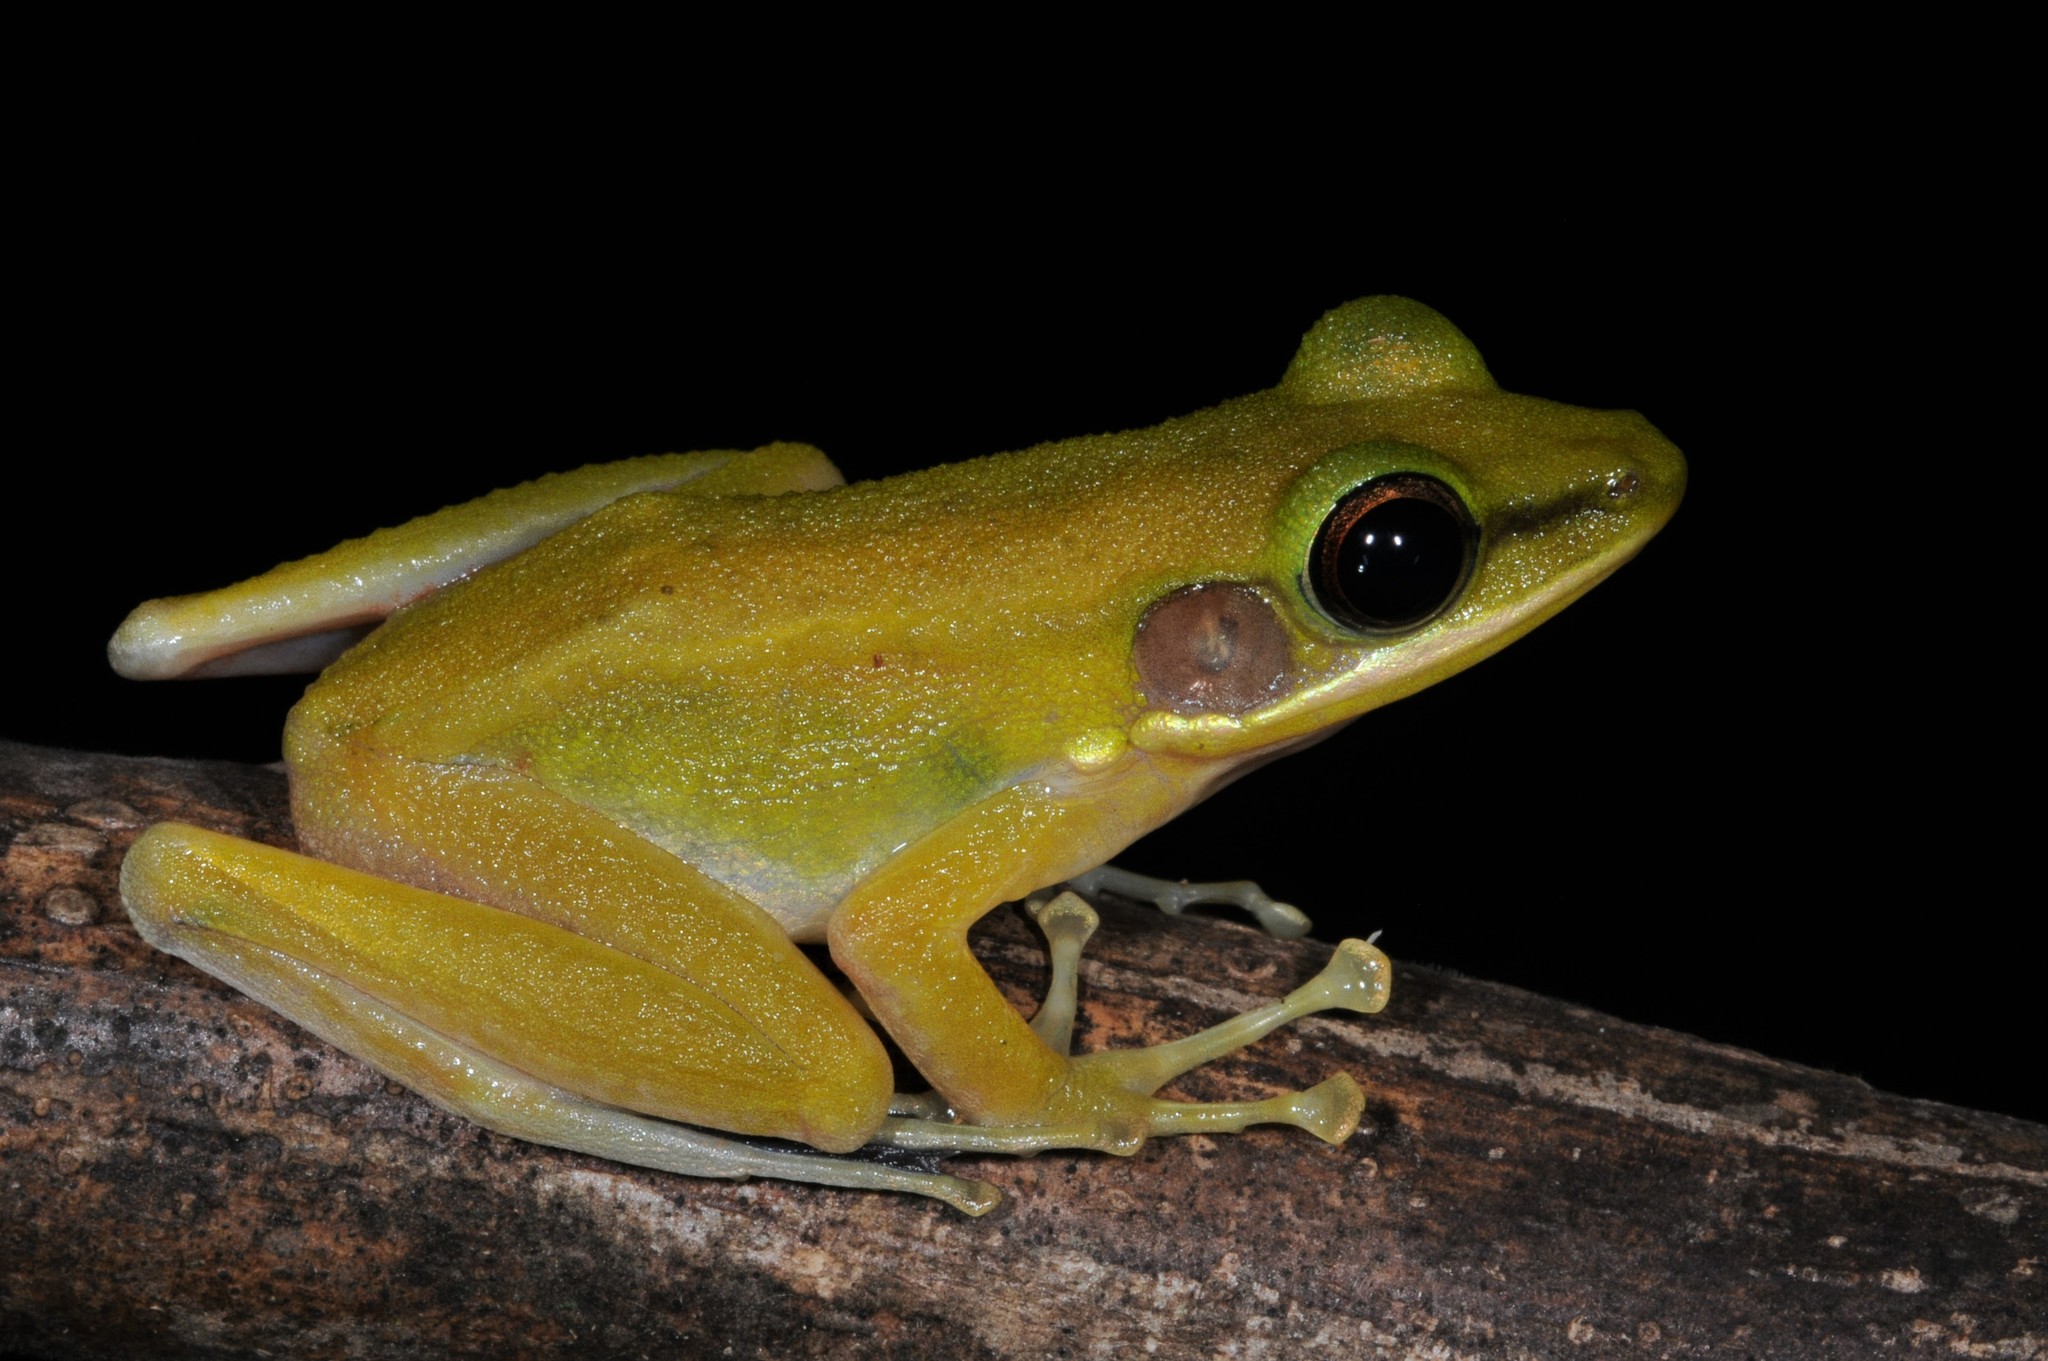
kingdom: Animalia
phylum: Chordata
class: Amphibia
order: Anura
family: Ranidae
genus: Chalcorana
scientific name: Chalcorana raniceps
